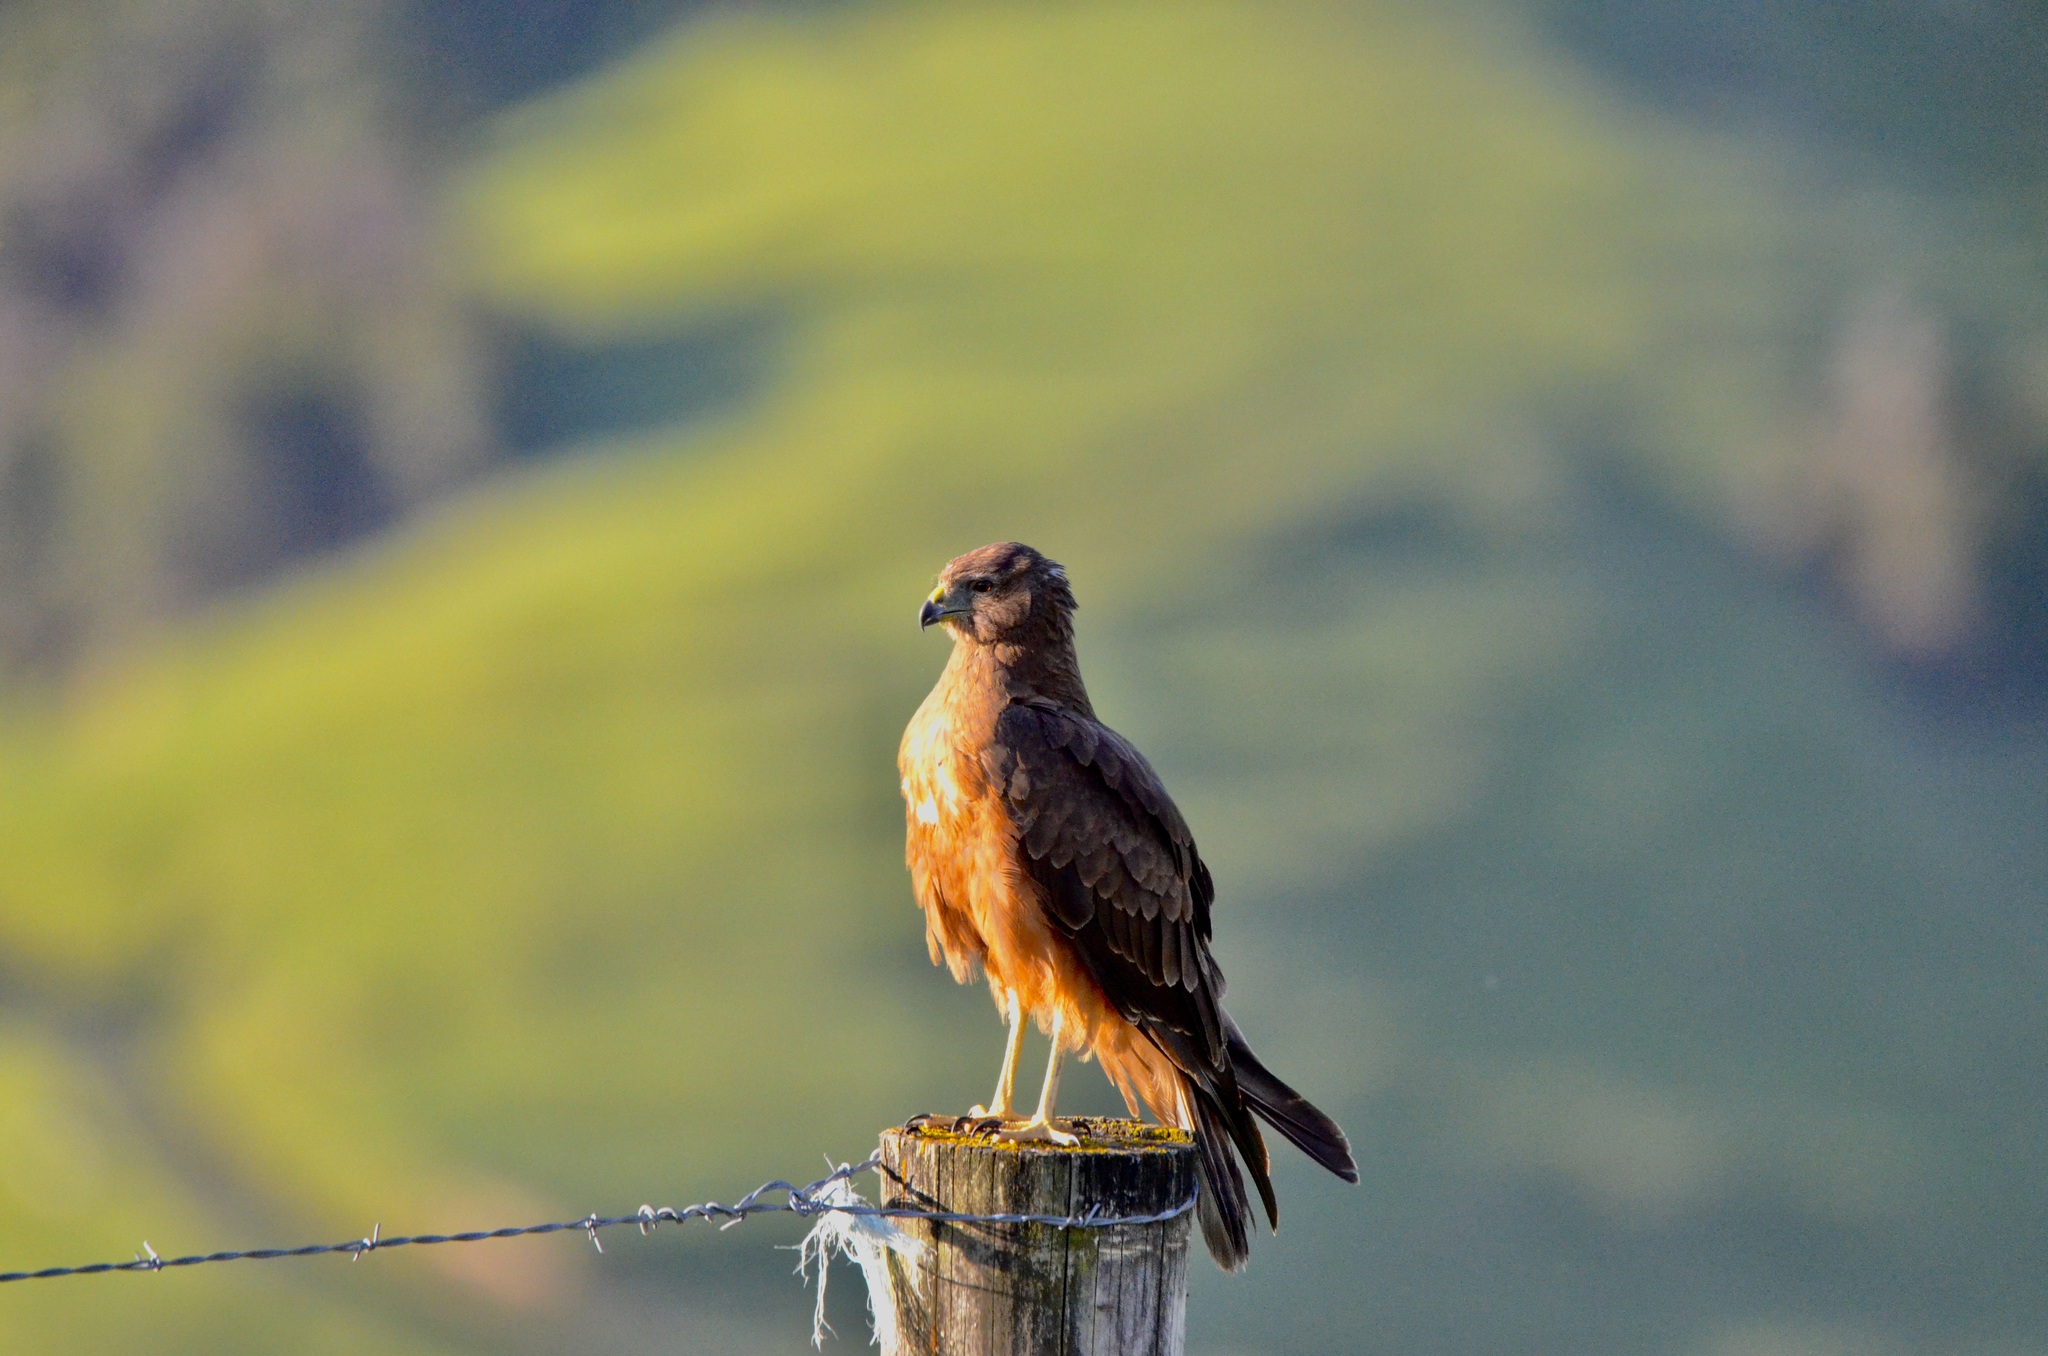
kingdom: Animalia
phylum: Chordata
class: Aves
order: Accipitriformes
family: Accipitridae
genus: Circus
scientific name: Circus approximans
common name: Swamp harrier
